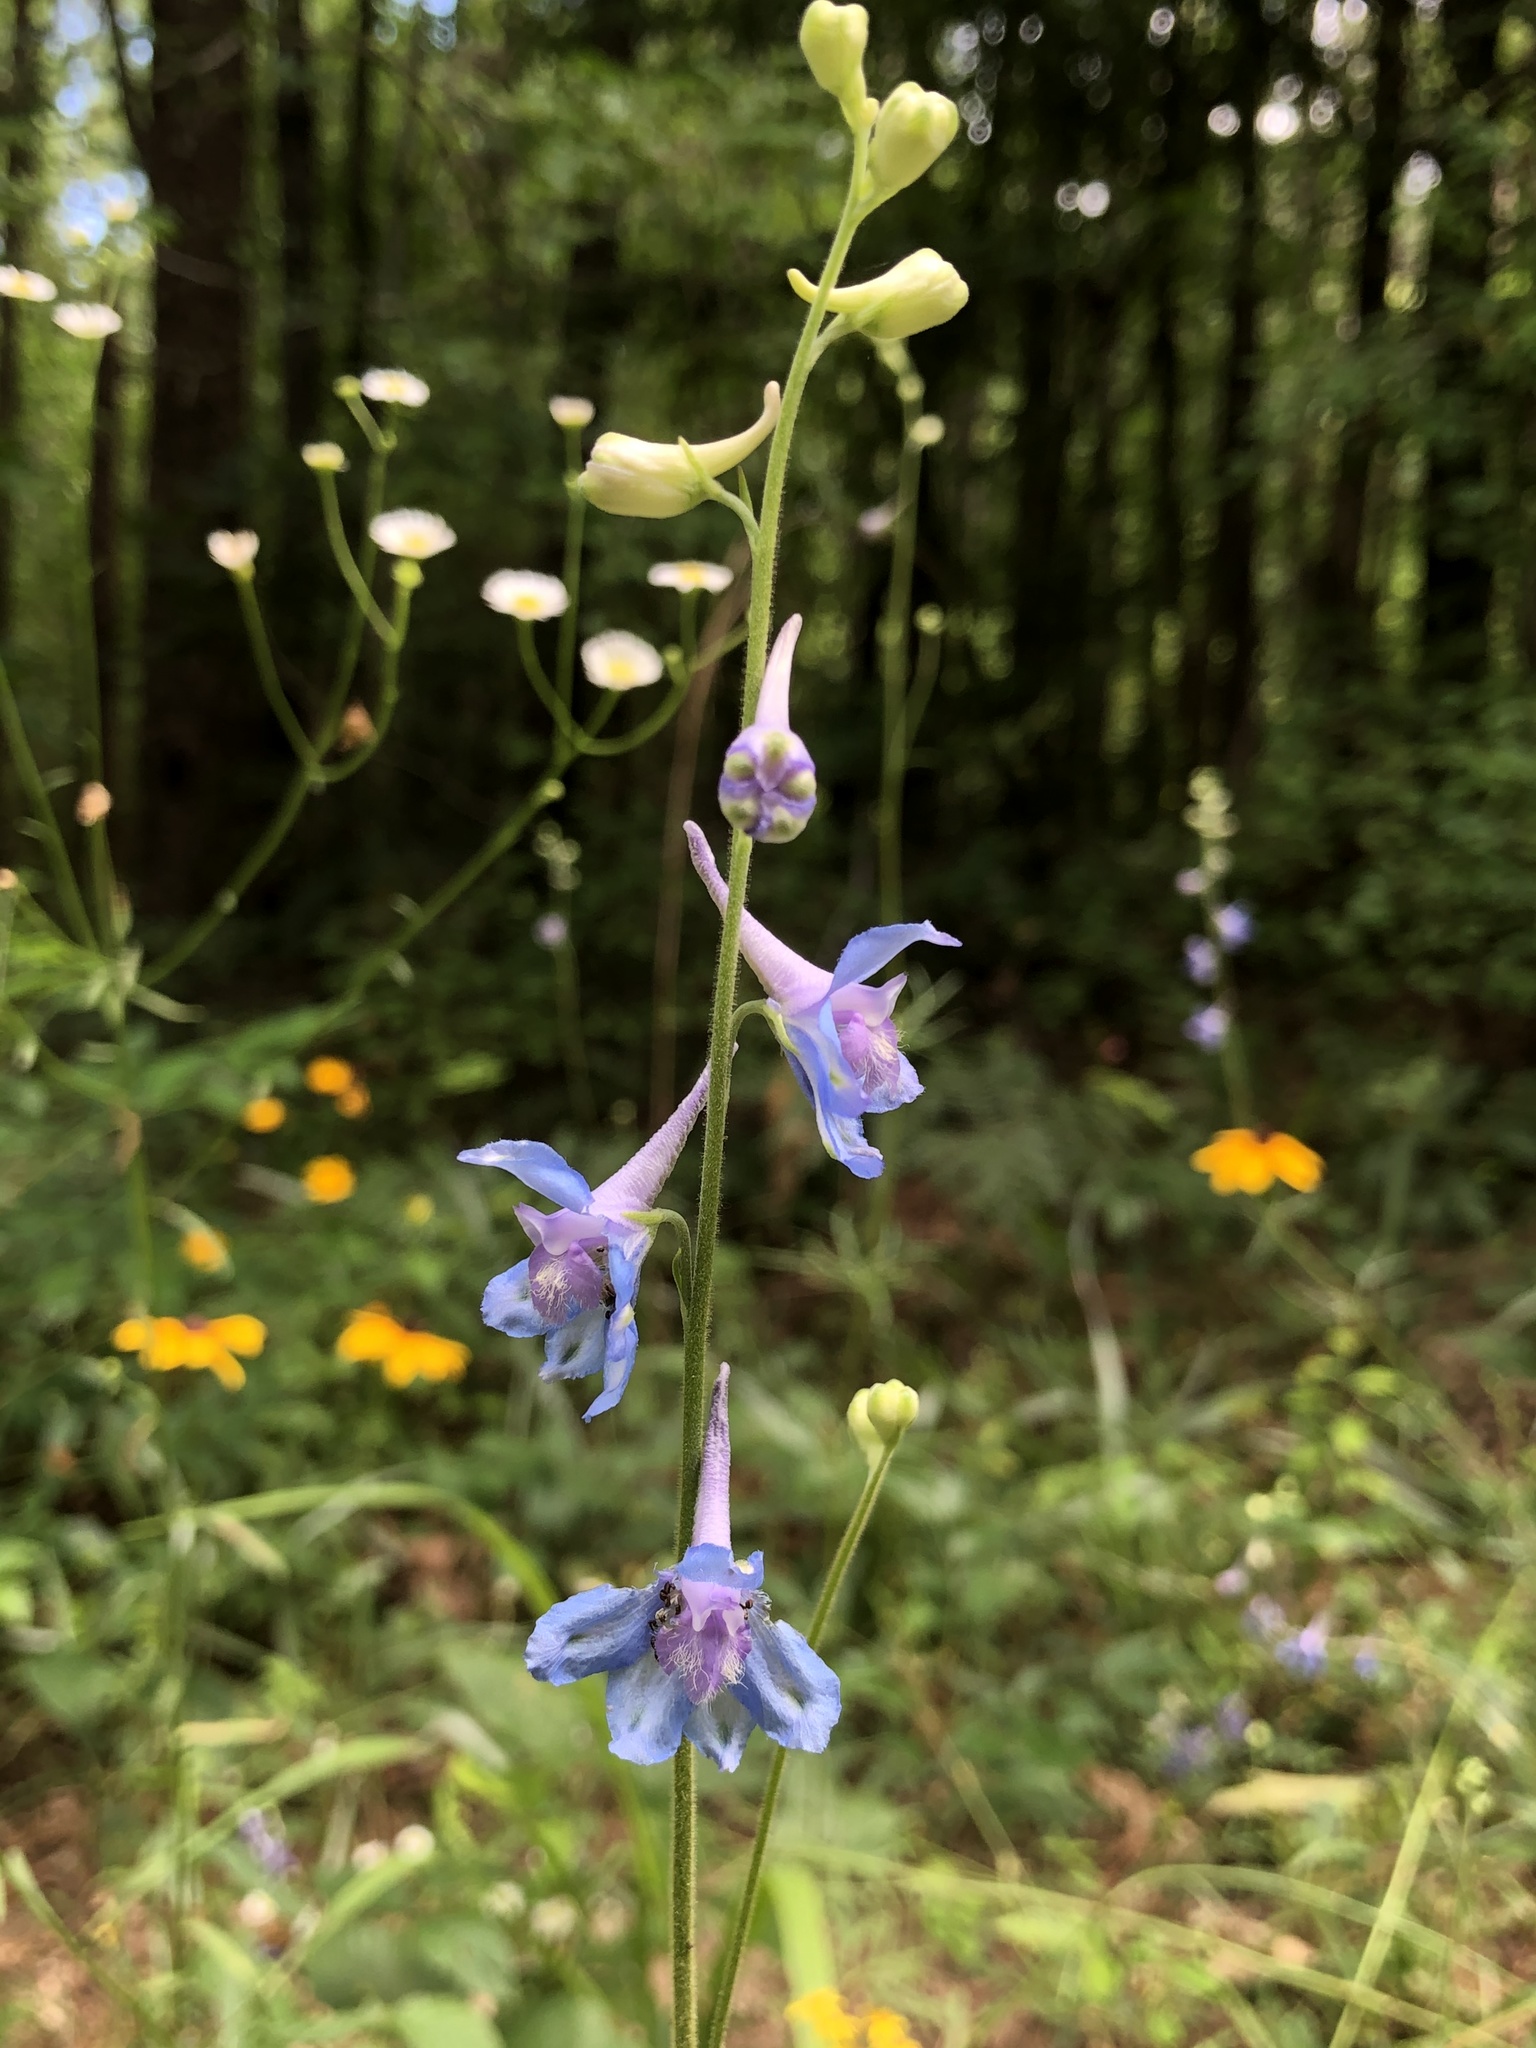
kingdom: Plantae
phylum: Tracheophyta
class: Magnoliopsida
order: Ranunculales
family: Ranunculaceae
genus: Delphinium
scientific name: Delphinium carolinianum
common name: Carolina larkspur
